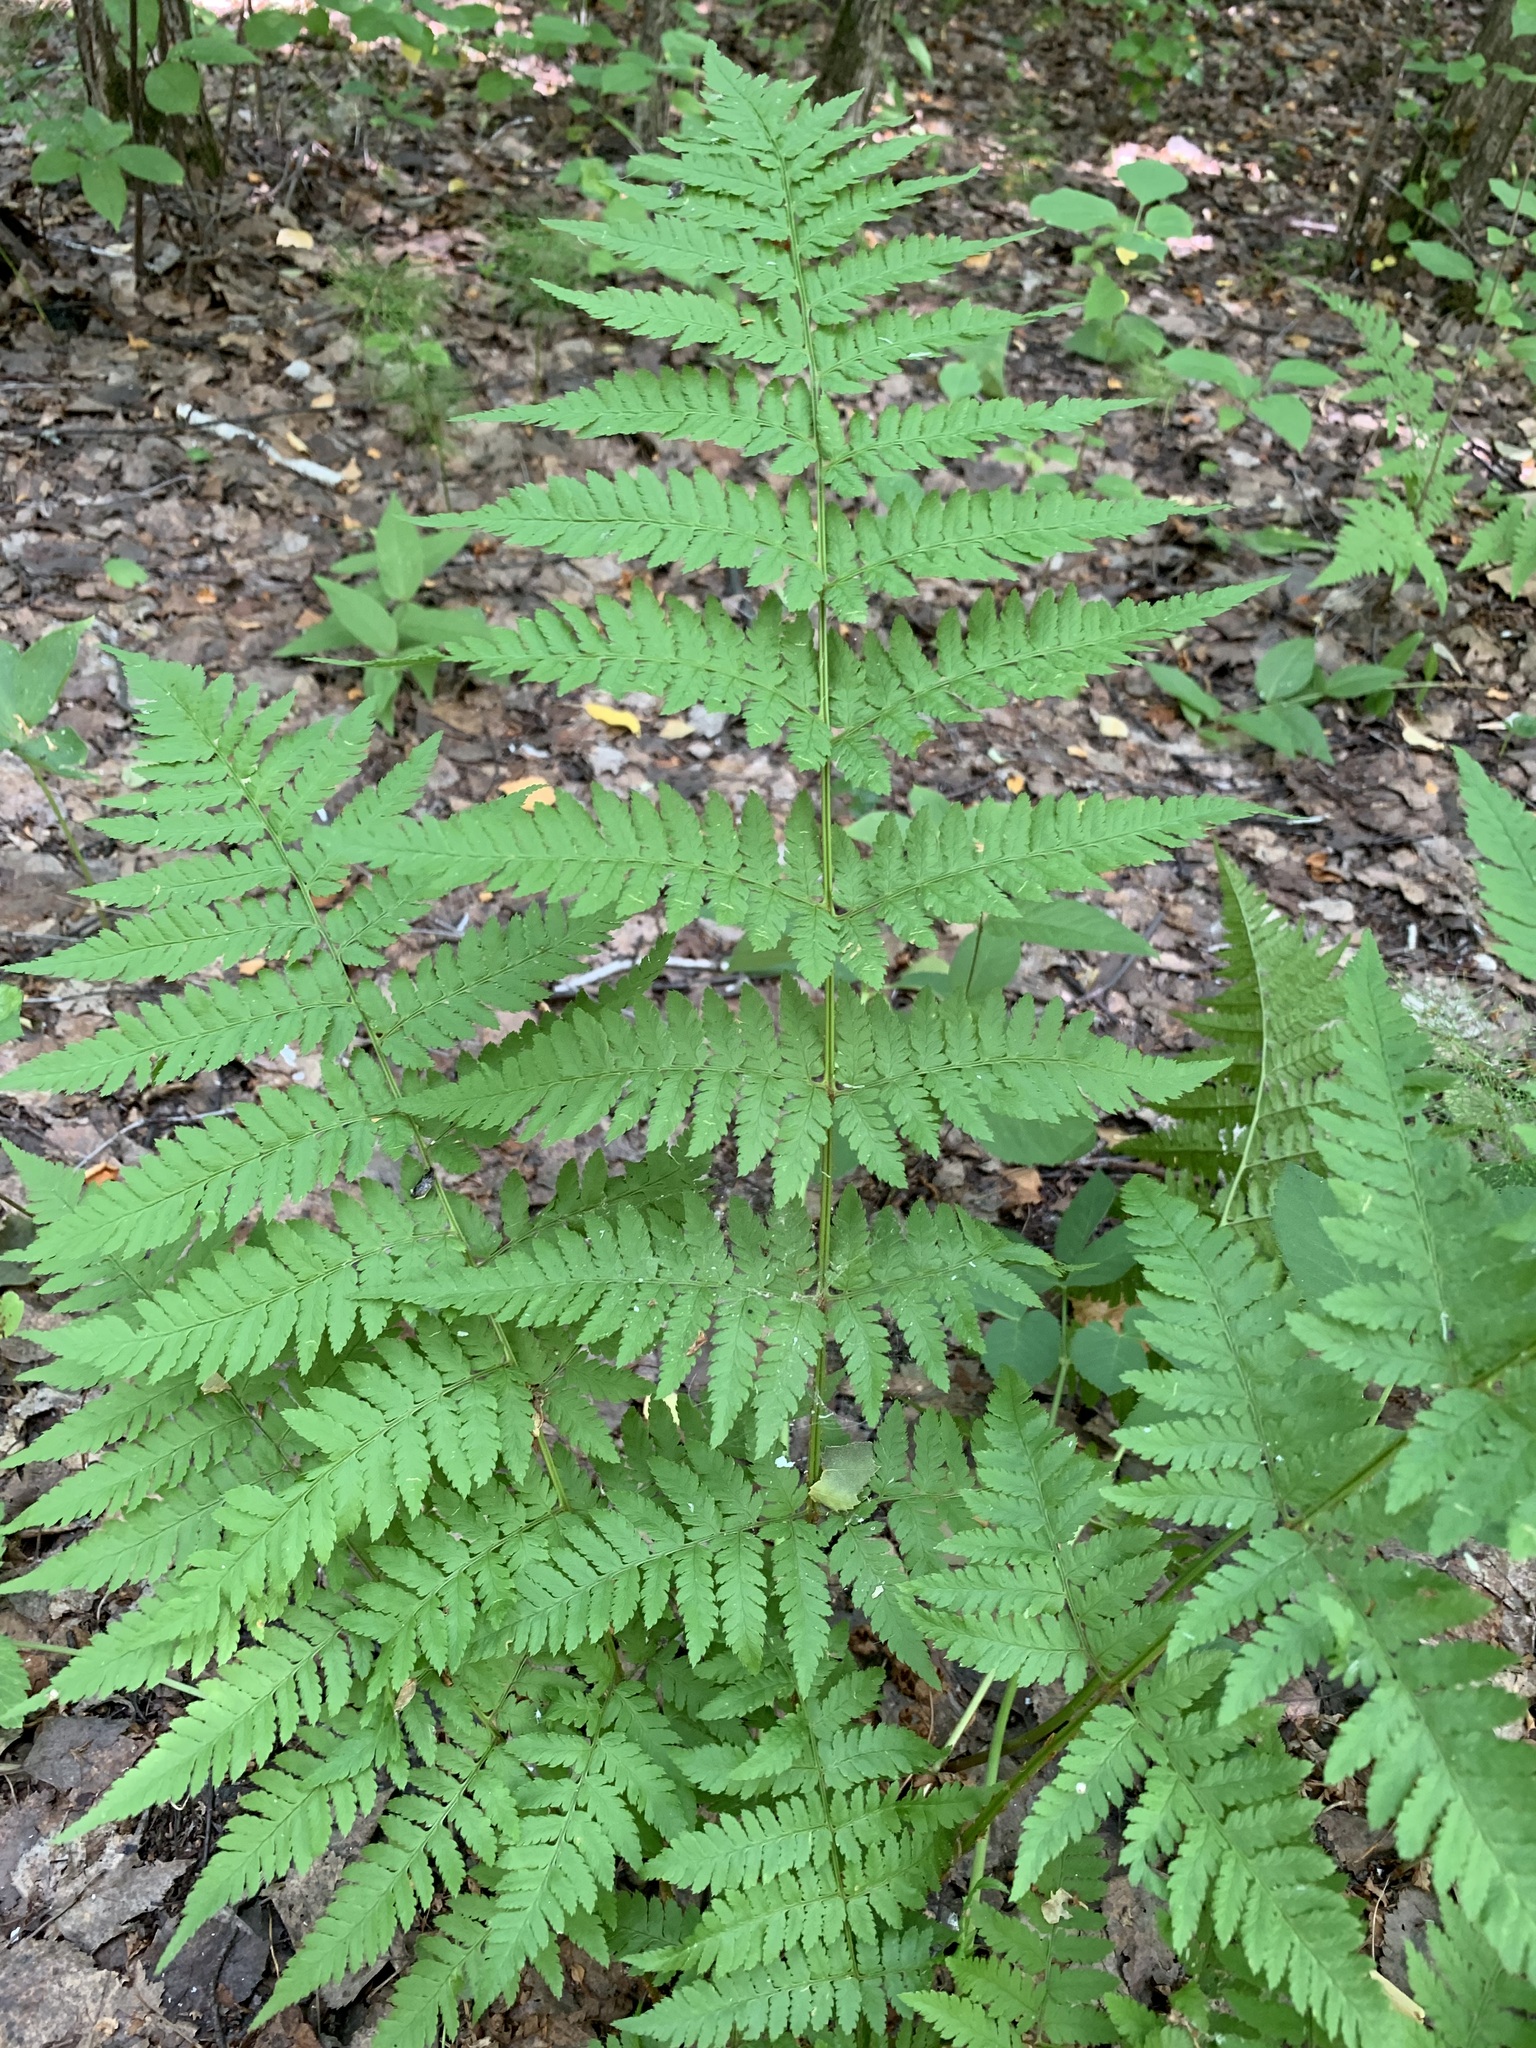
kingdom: Plantae
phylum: Tracheophyta
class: Polypodiopsida
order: Polypodiales
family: Dryopteridaceae
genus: Dryopteris
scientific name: Dryopteris carthusiana
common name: Narrow buckler-fern
